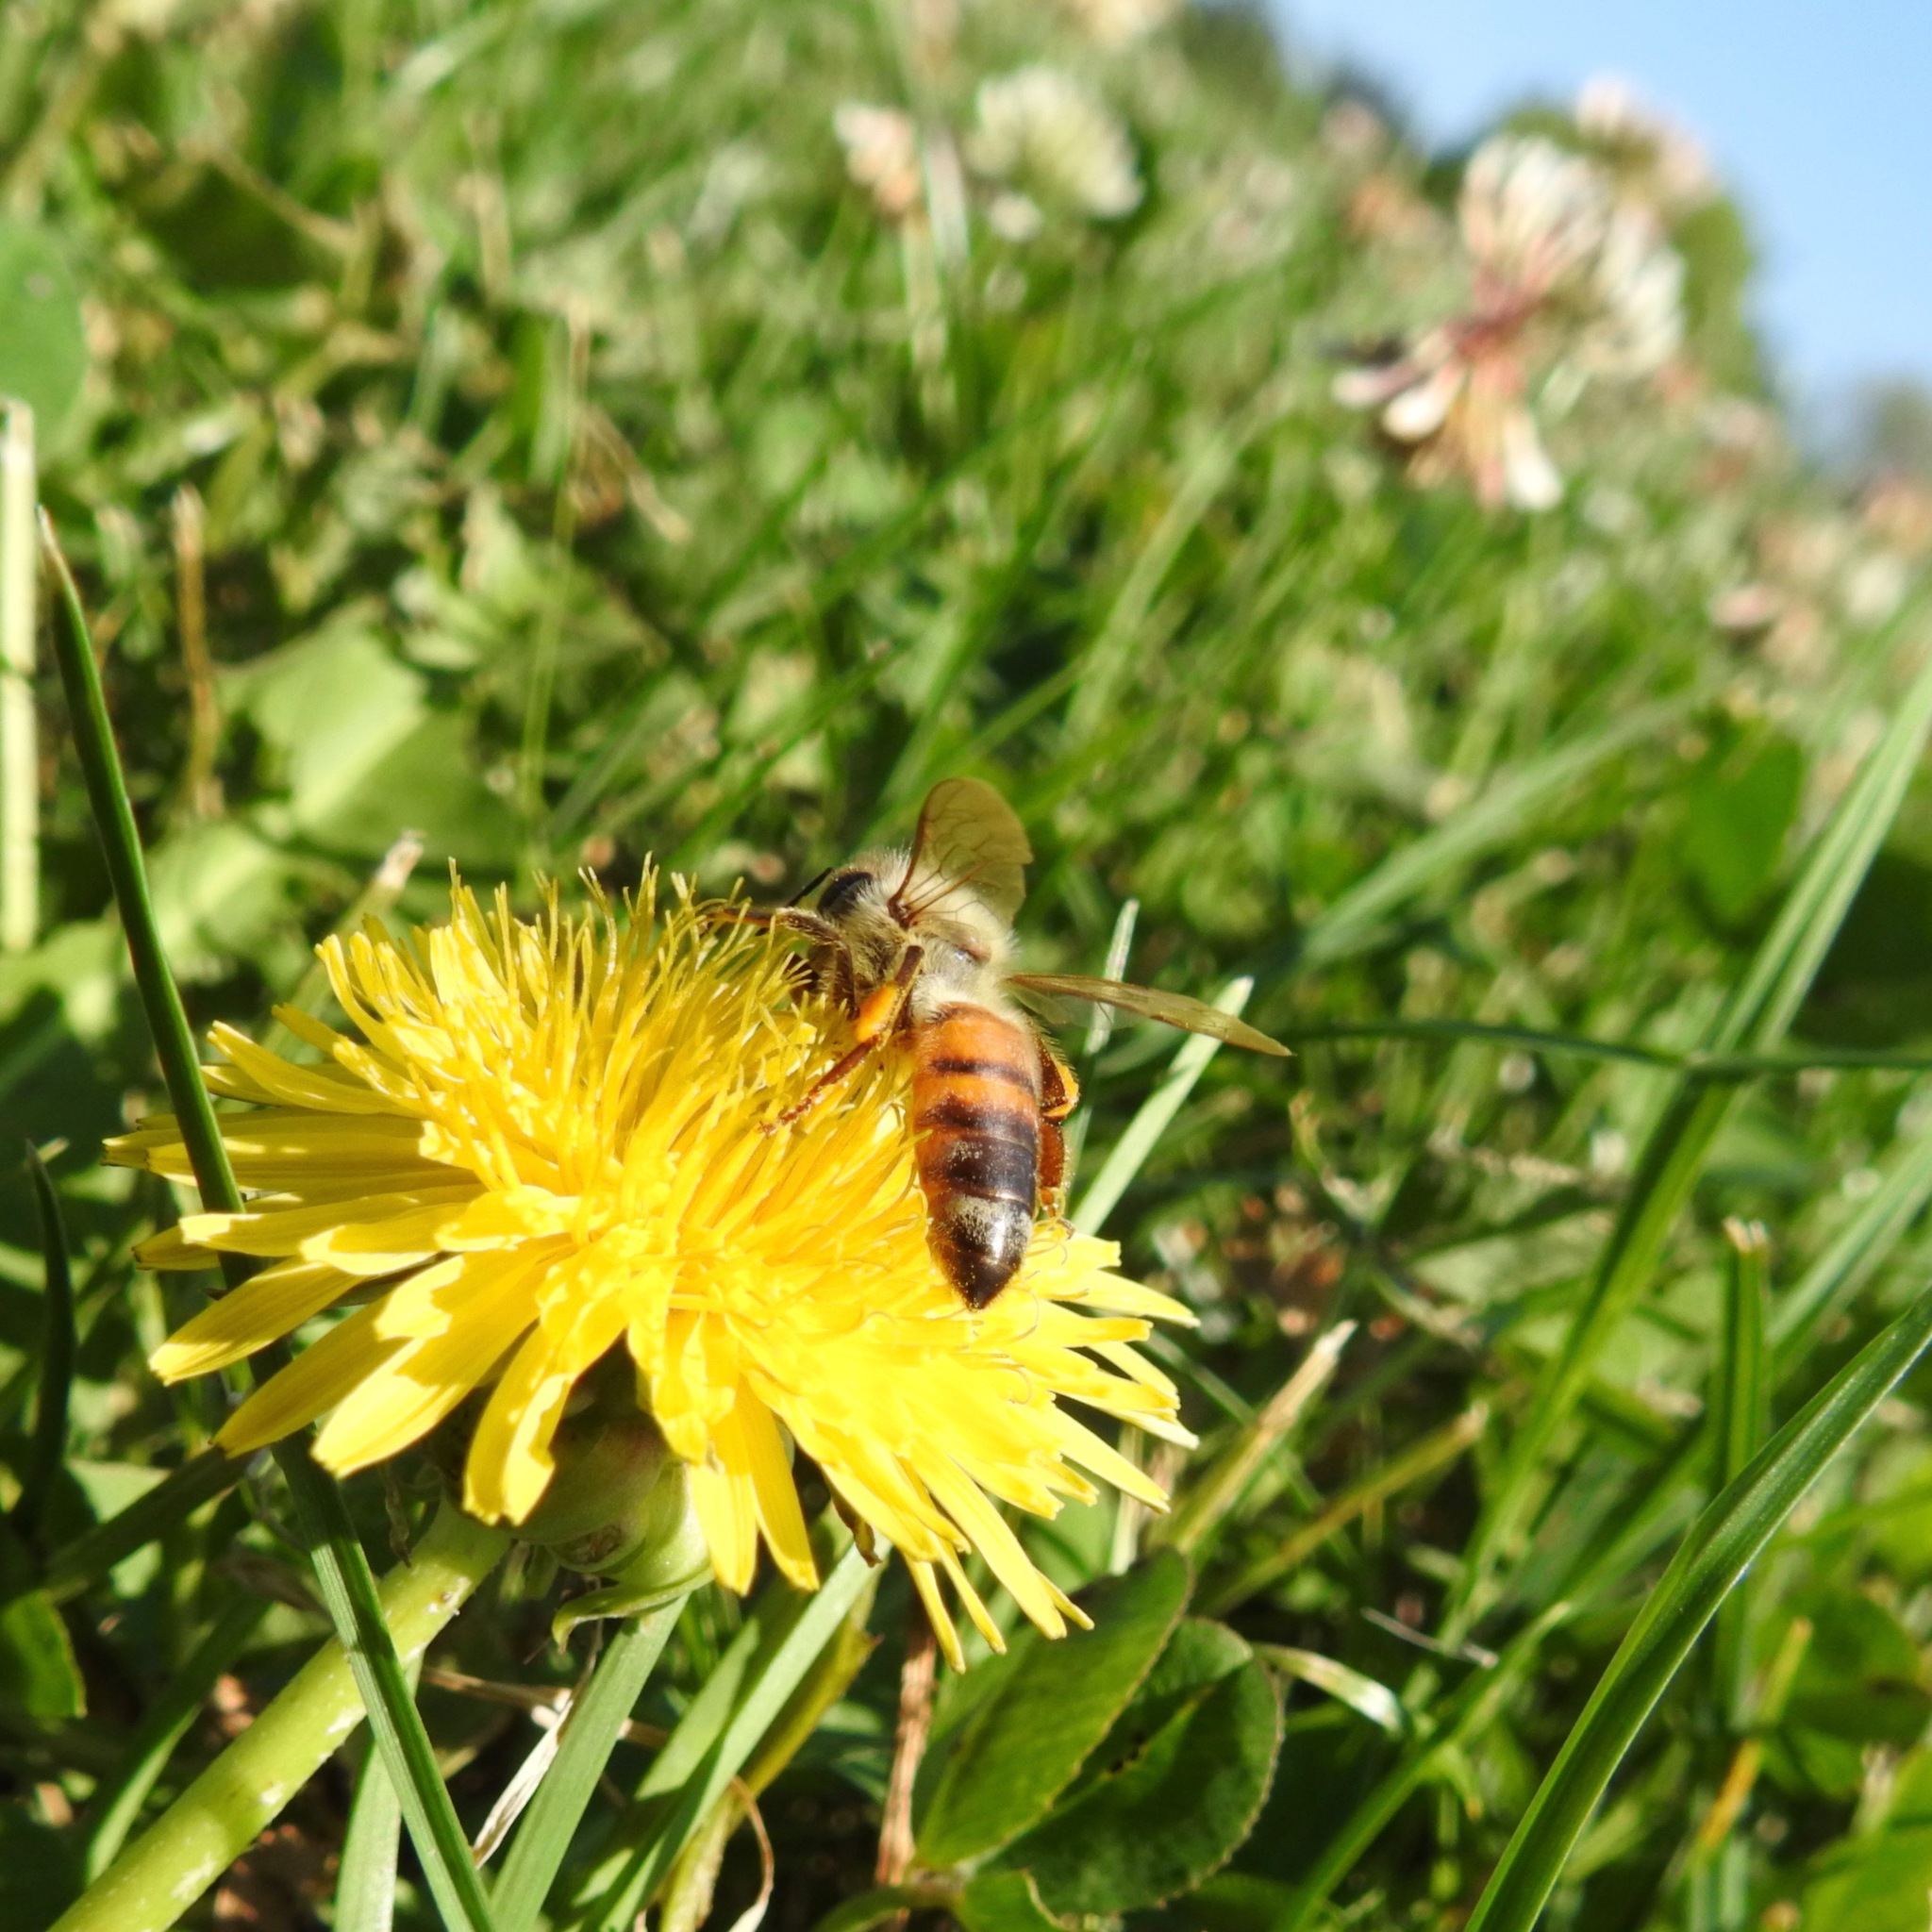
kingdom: Animalia
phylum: Arthropoda
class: Insecta
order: Hymenoptera
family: Apidae
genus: Apis
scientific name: Apis mellifera
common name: Honey bee
